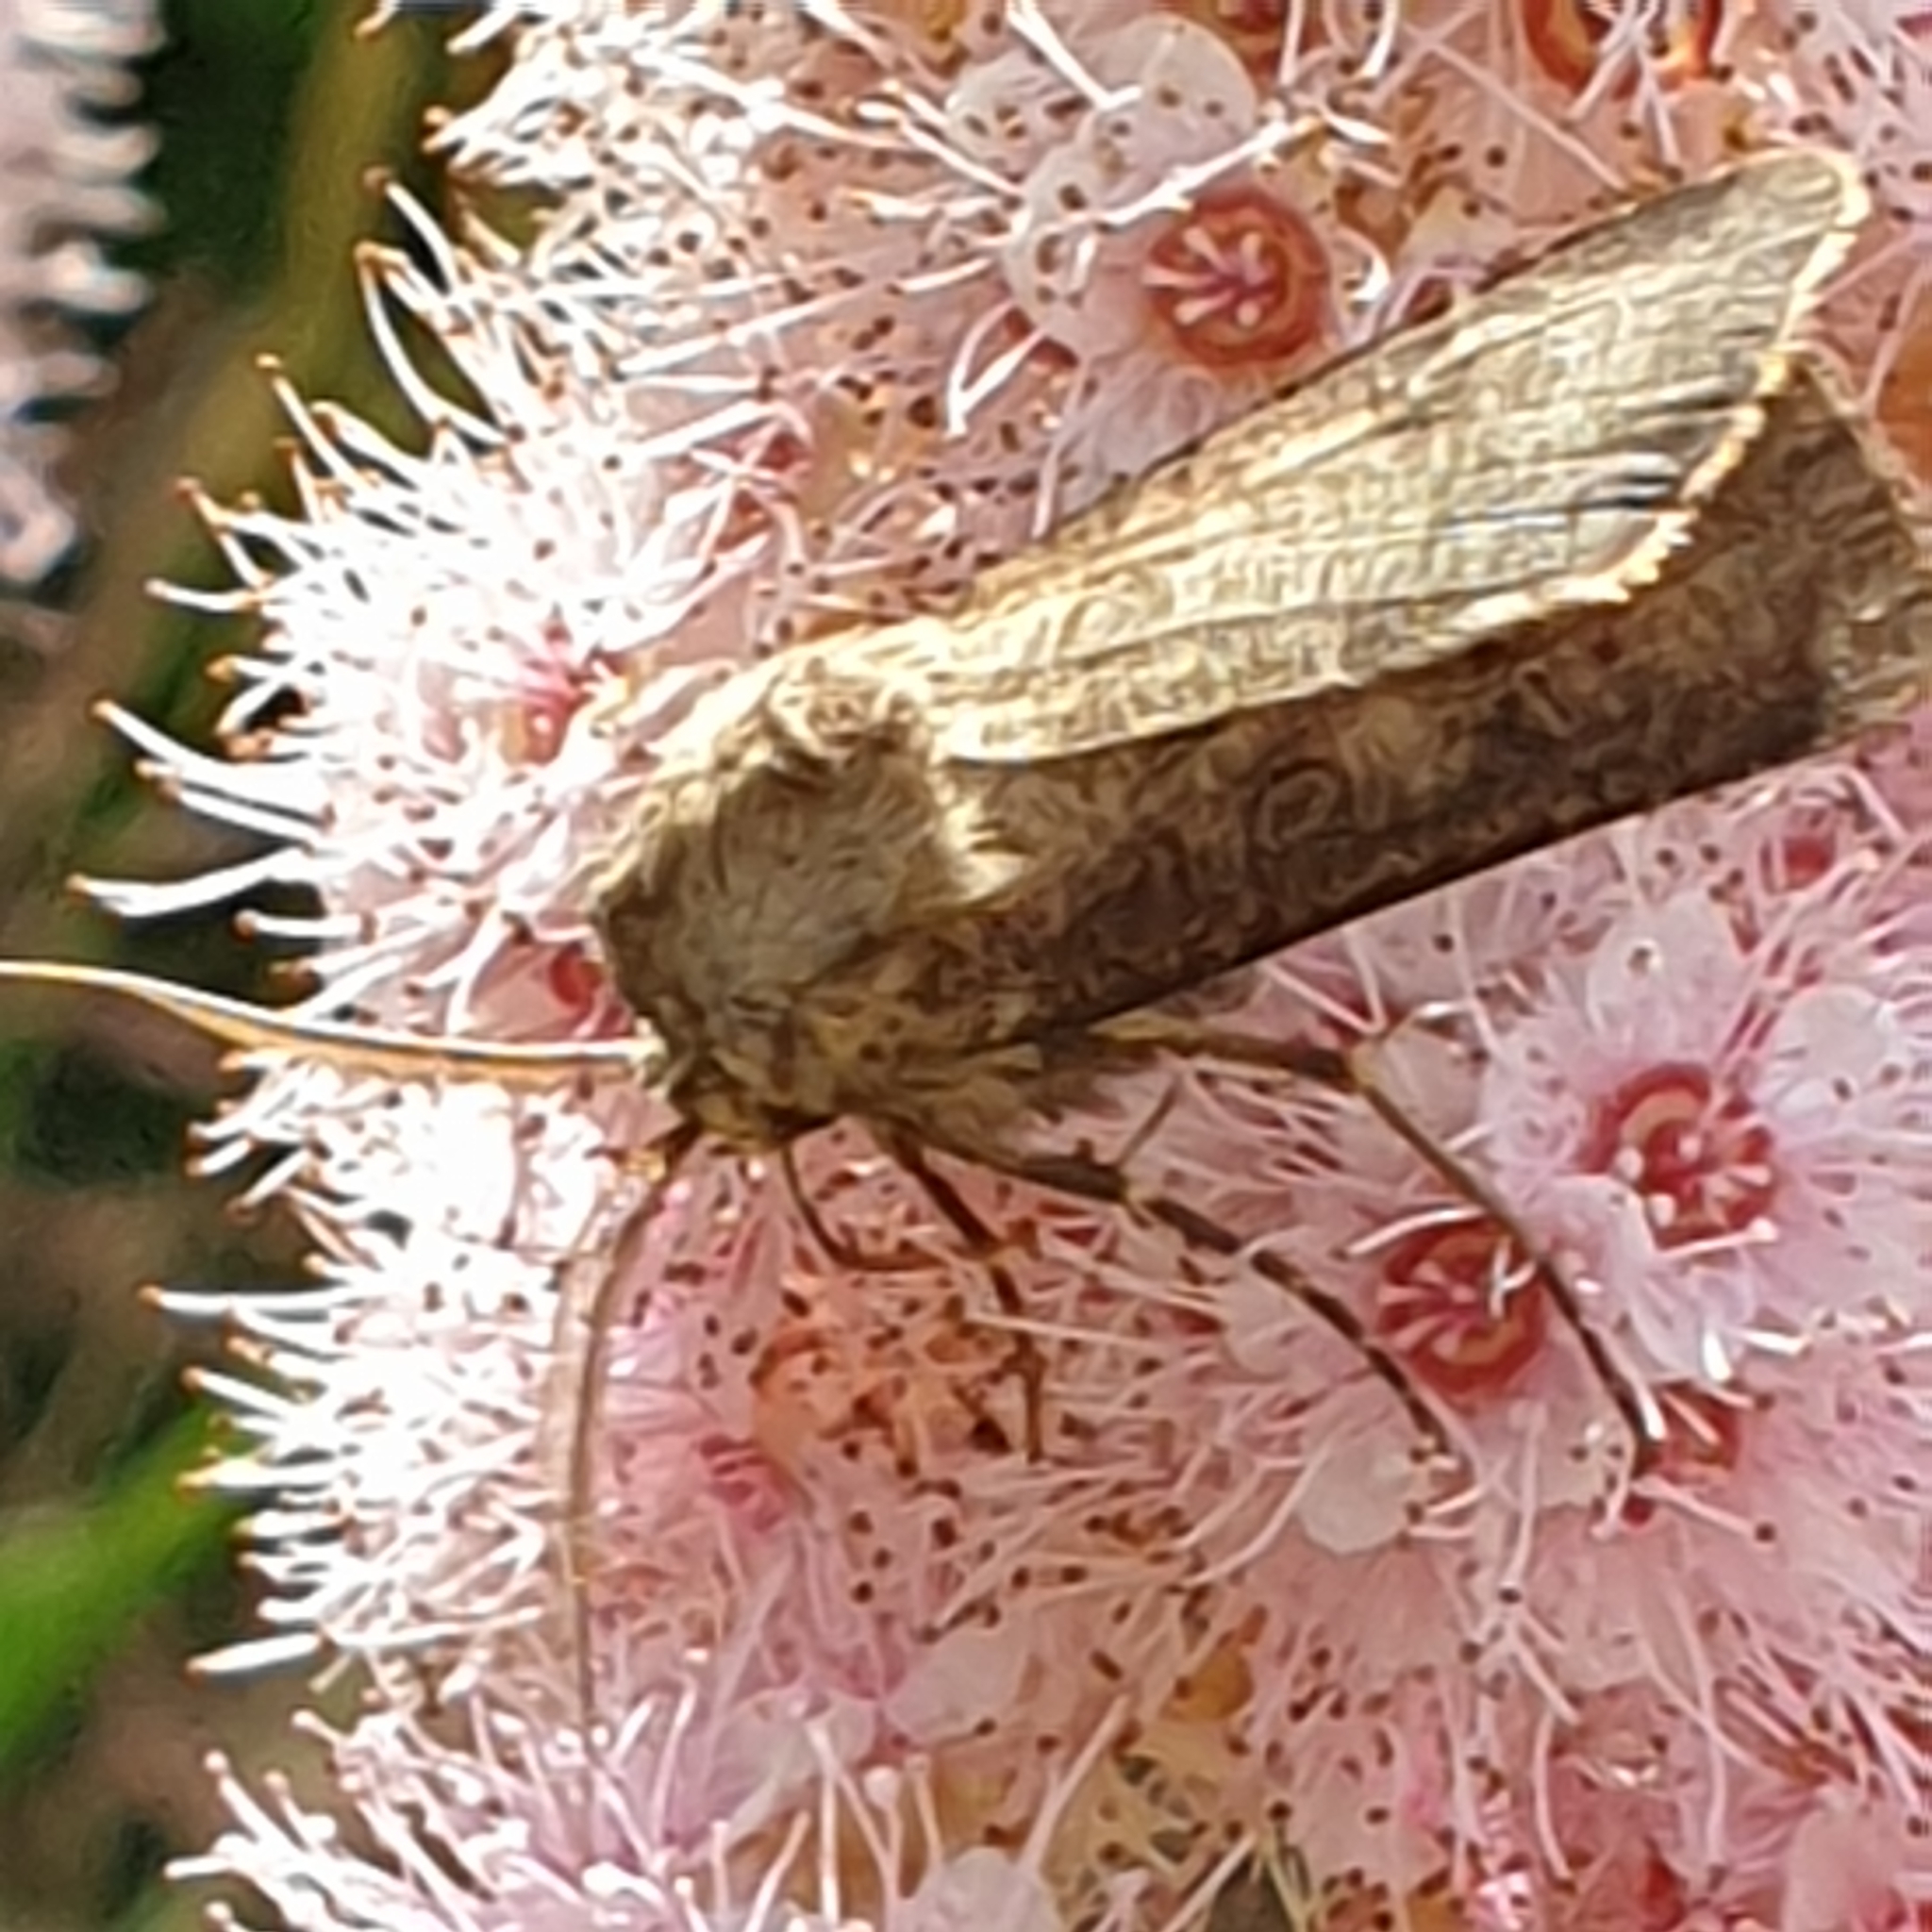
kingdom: Animalia
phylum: Arthropoda
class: Insecta
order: Lepidoptera
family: Noctuidae
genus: Agrotis
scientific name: Agrotis clavis
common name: Heart and club
